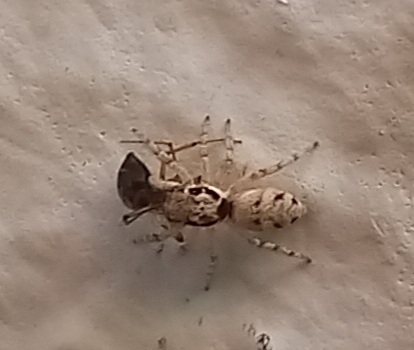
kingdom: Animalia
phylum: Arthropoda
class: Arachnida
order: Araneae
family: Salticidae
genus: Salticus
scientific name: Salticus mutabilis
